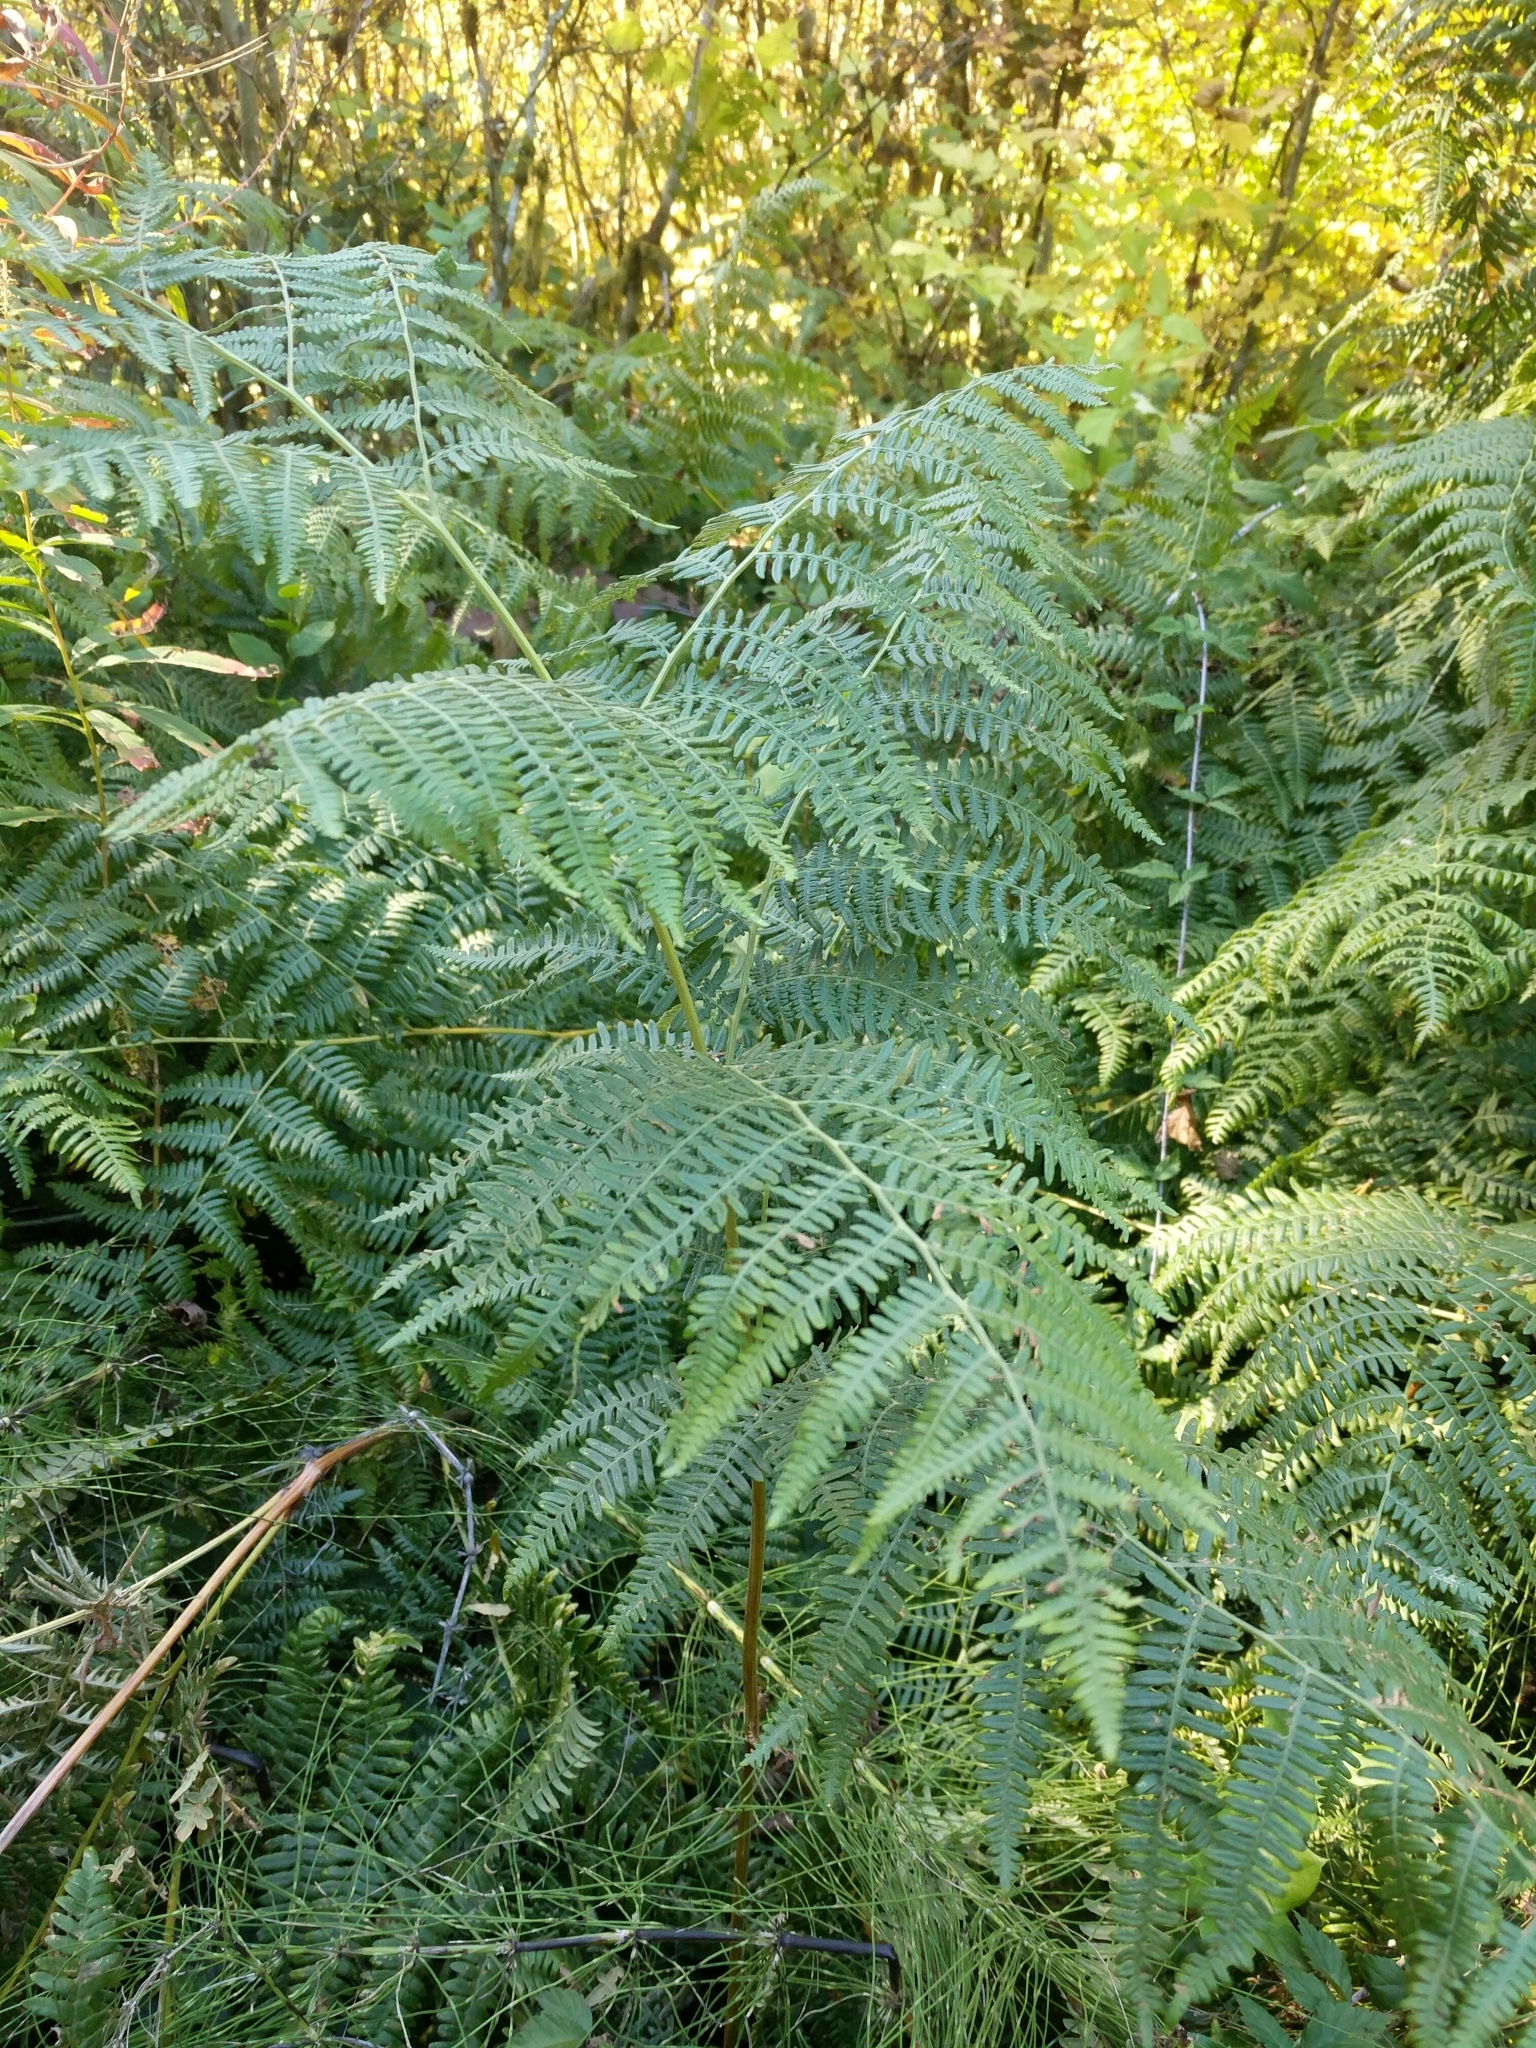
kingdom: Plantae
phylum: Tracheophyta
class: Polypodiopsida
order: Polypodiales
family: Dennstaedtiaceae
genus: Pteridium
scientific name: Pteridium aquilinum
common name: Bracken
